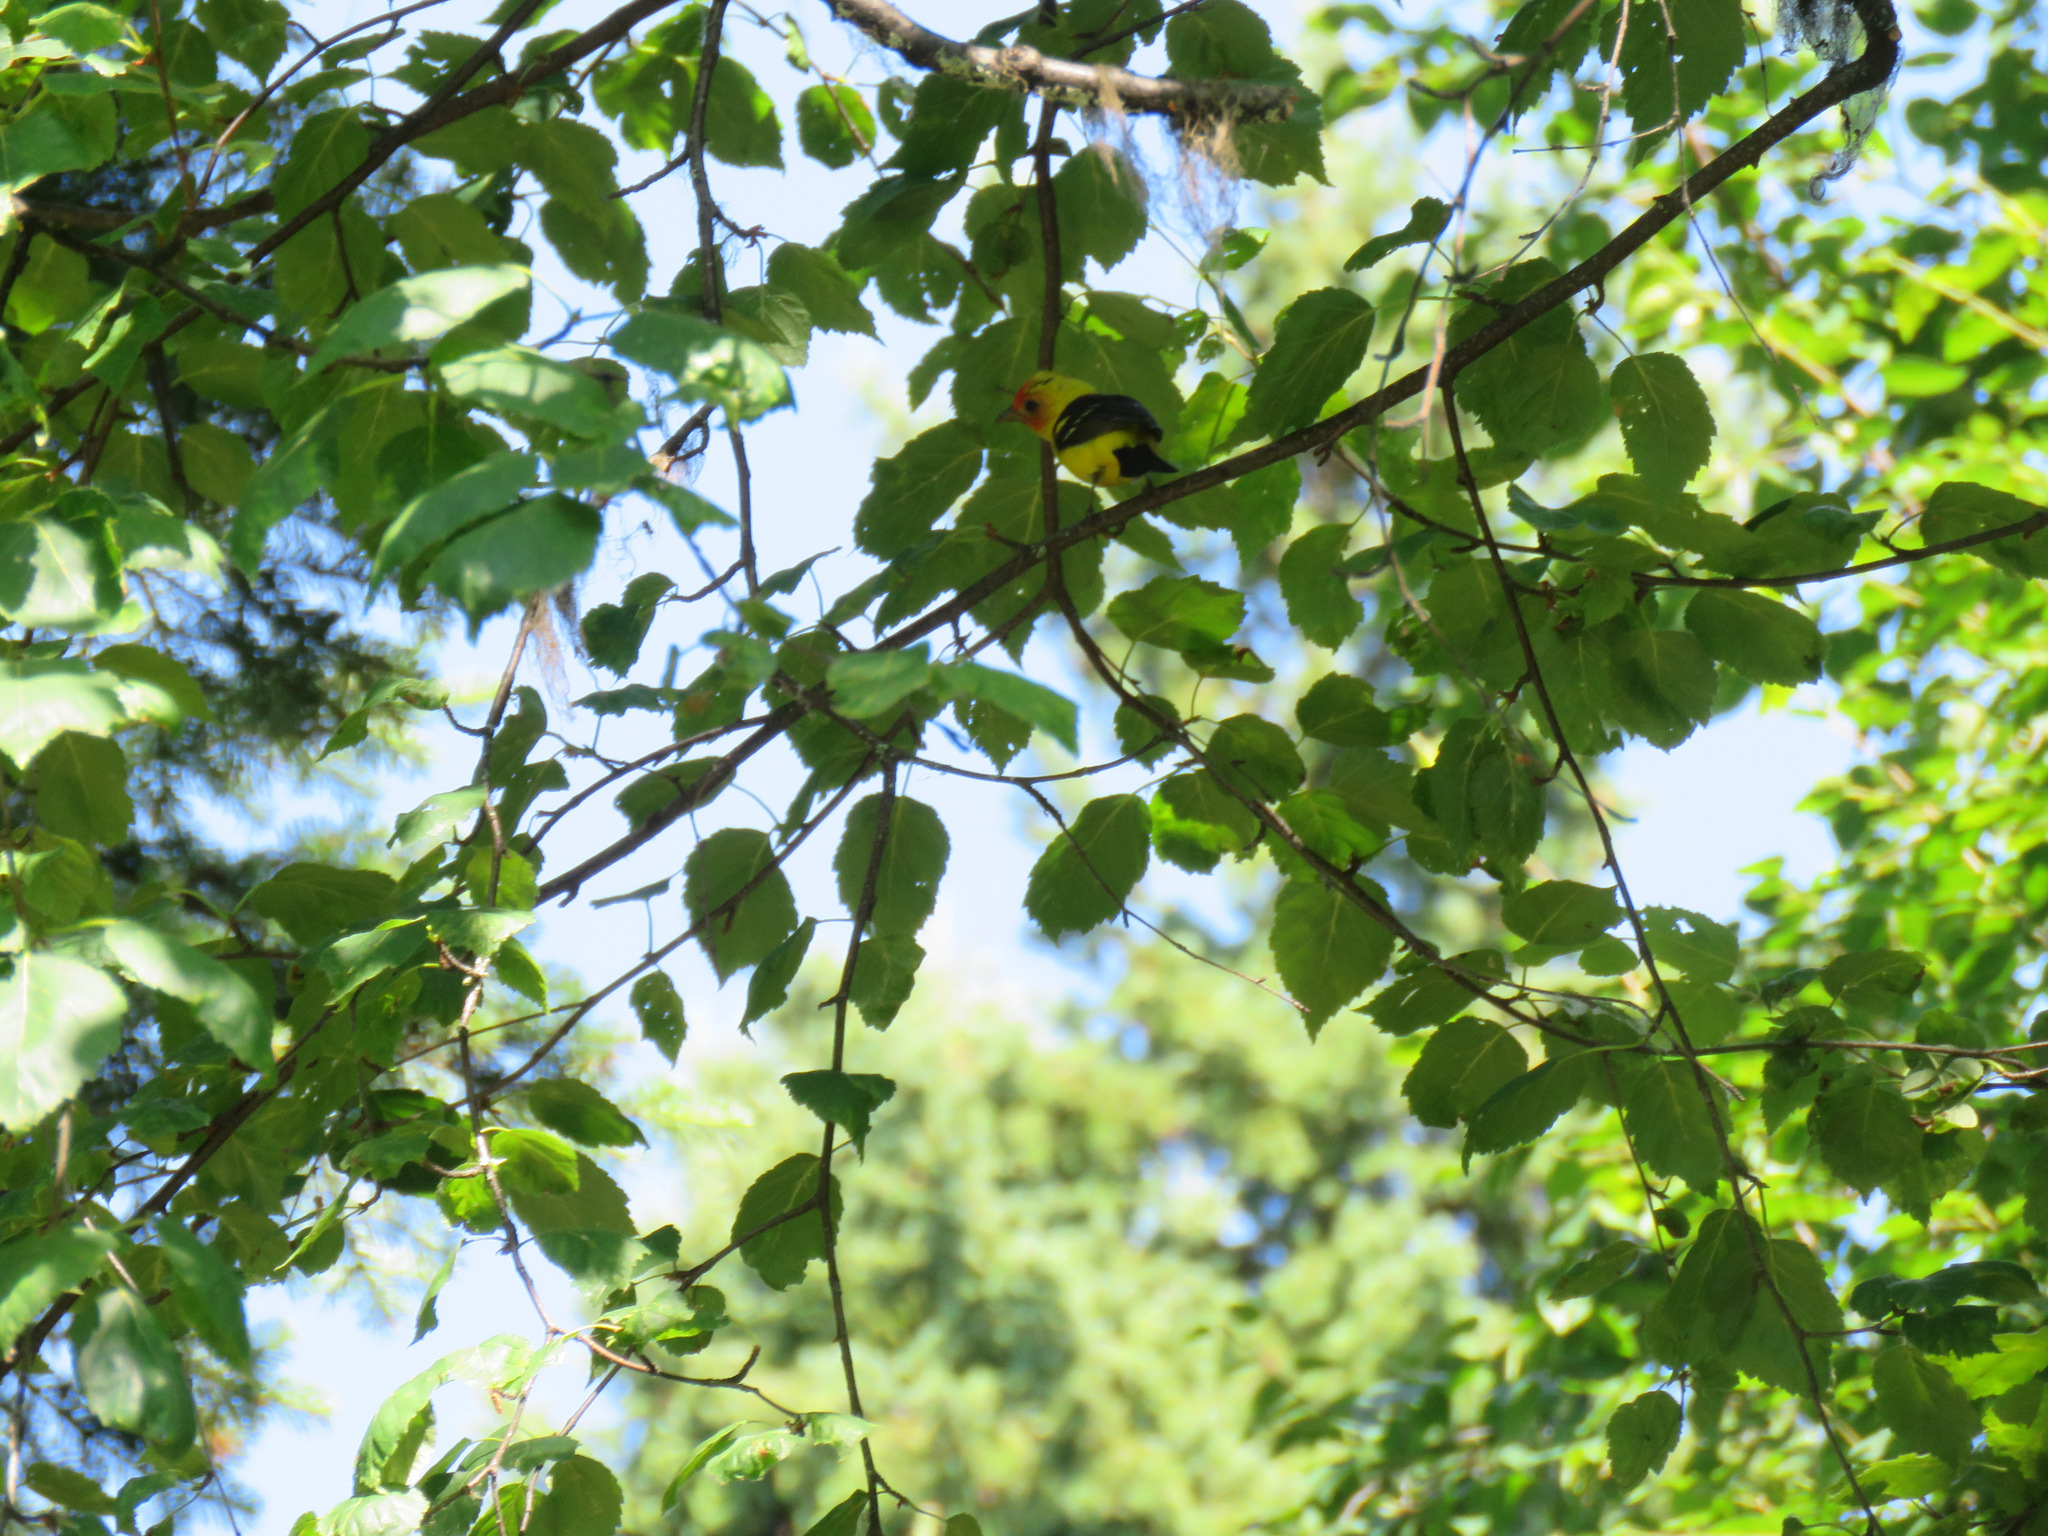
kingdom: Animalia
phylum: Chordata
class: Aves
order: Passeriformes
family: Cardinalidae
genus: Piranga
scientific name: Piranga ludoviciana
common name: Western tanager
